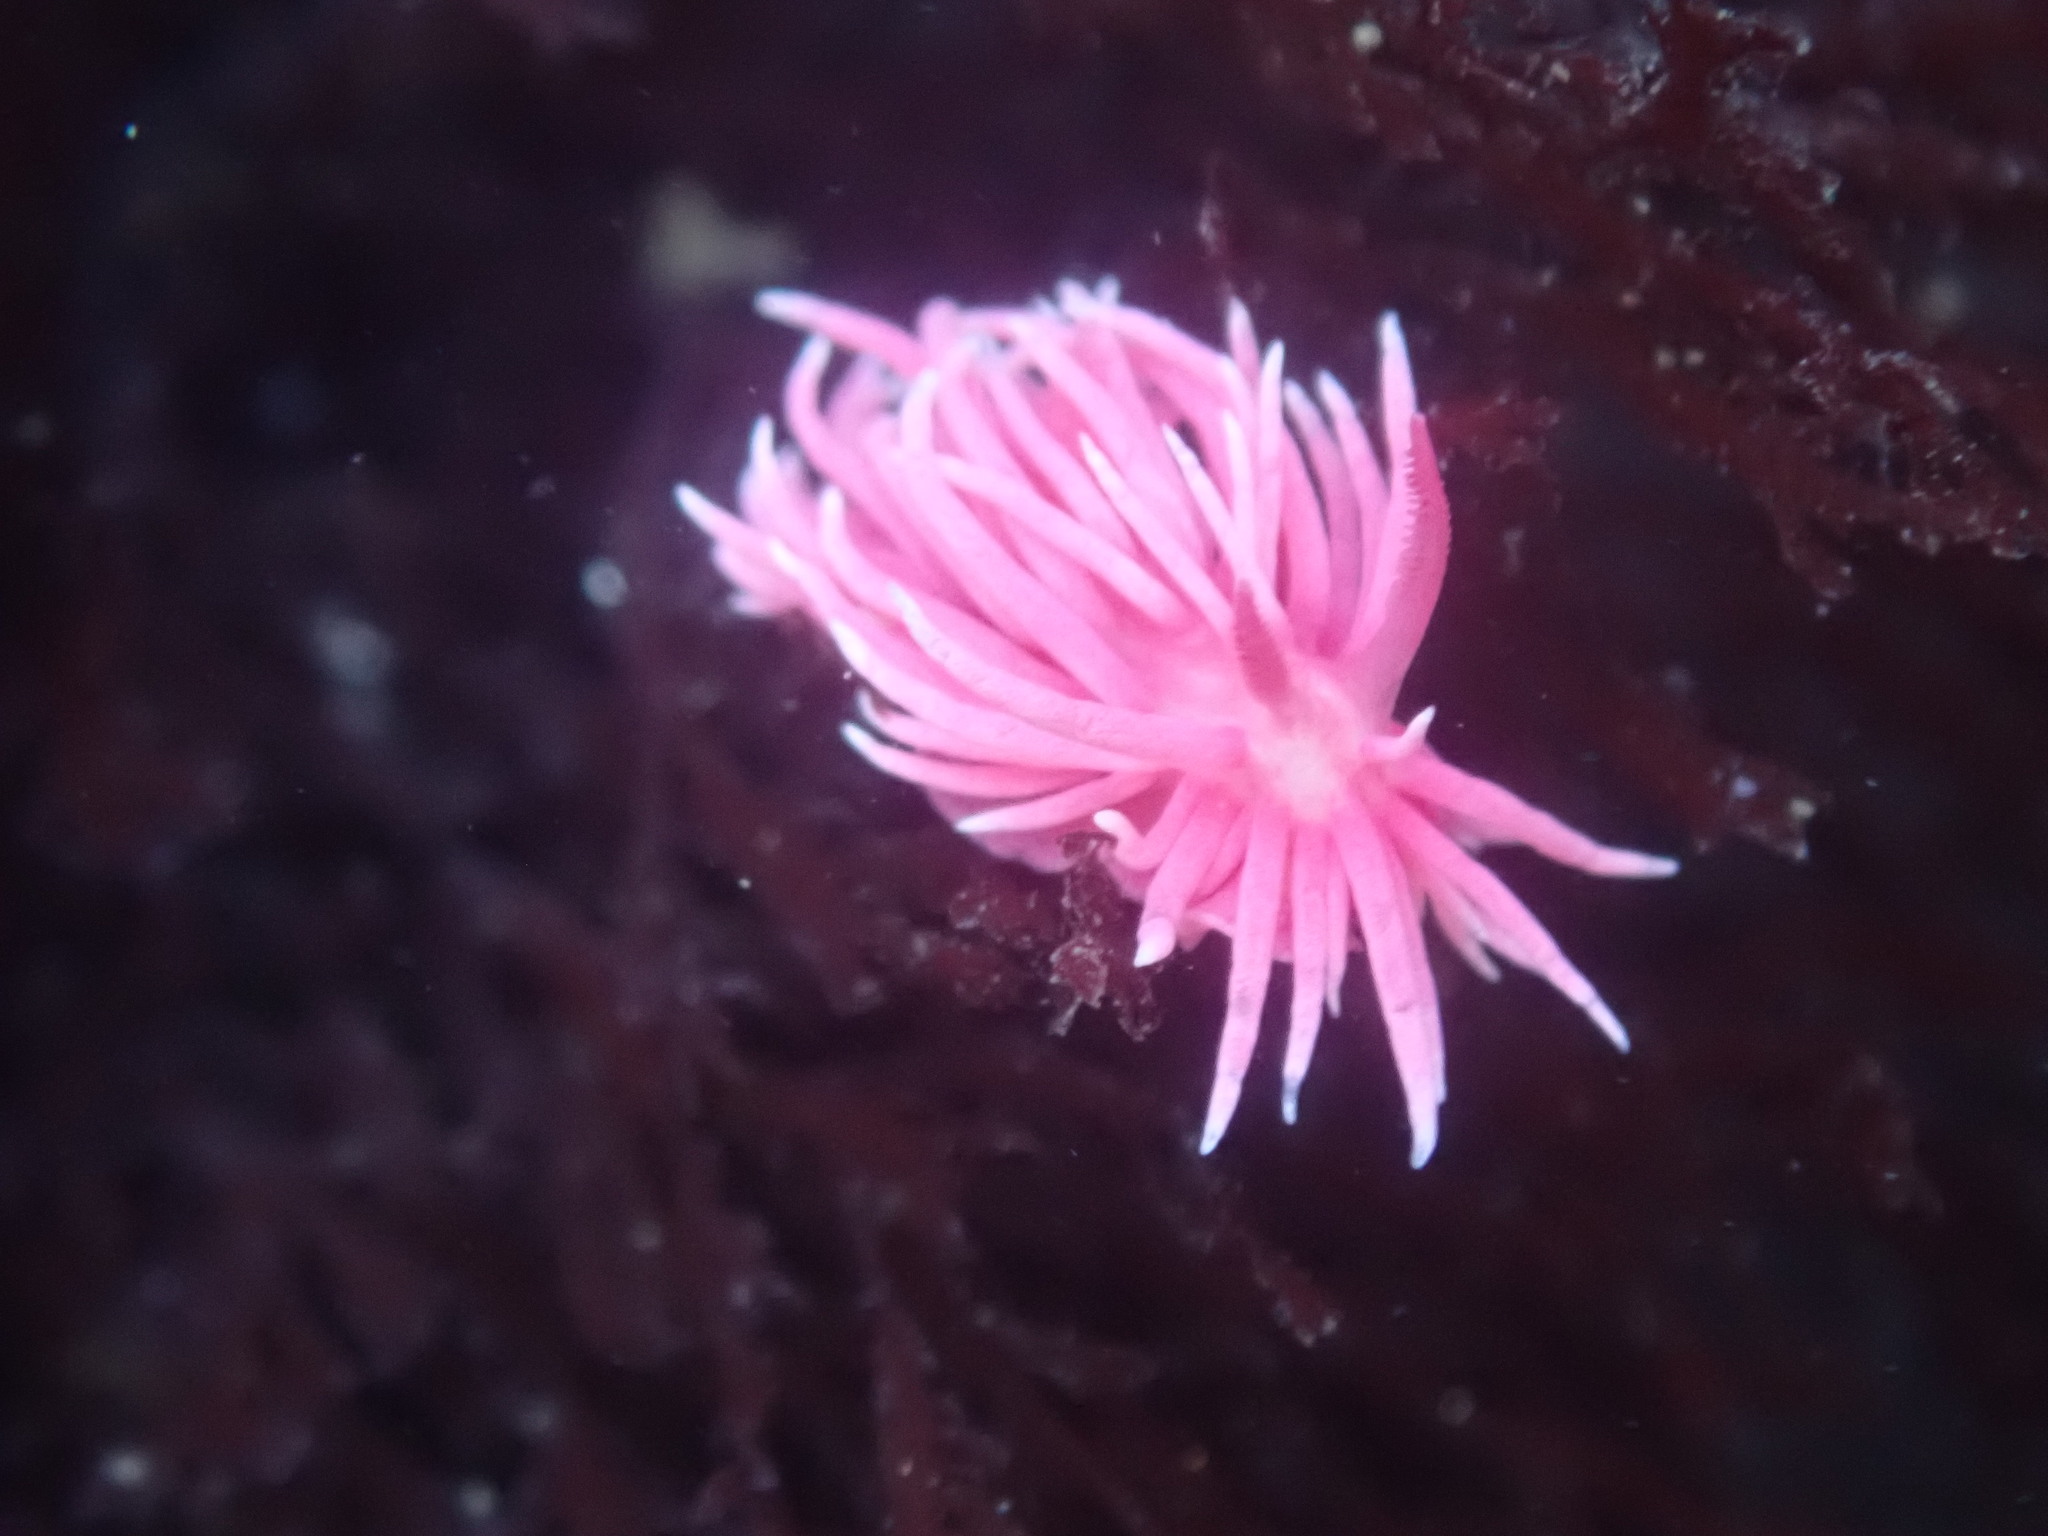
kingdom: Animalia
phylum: Mollusca
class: Gastropoda
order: Nudibranchia
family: Goniodorididae
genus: Okenia
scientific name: Okenia
